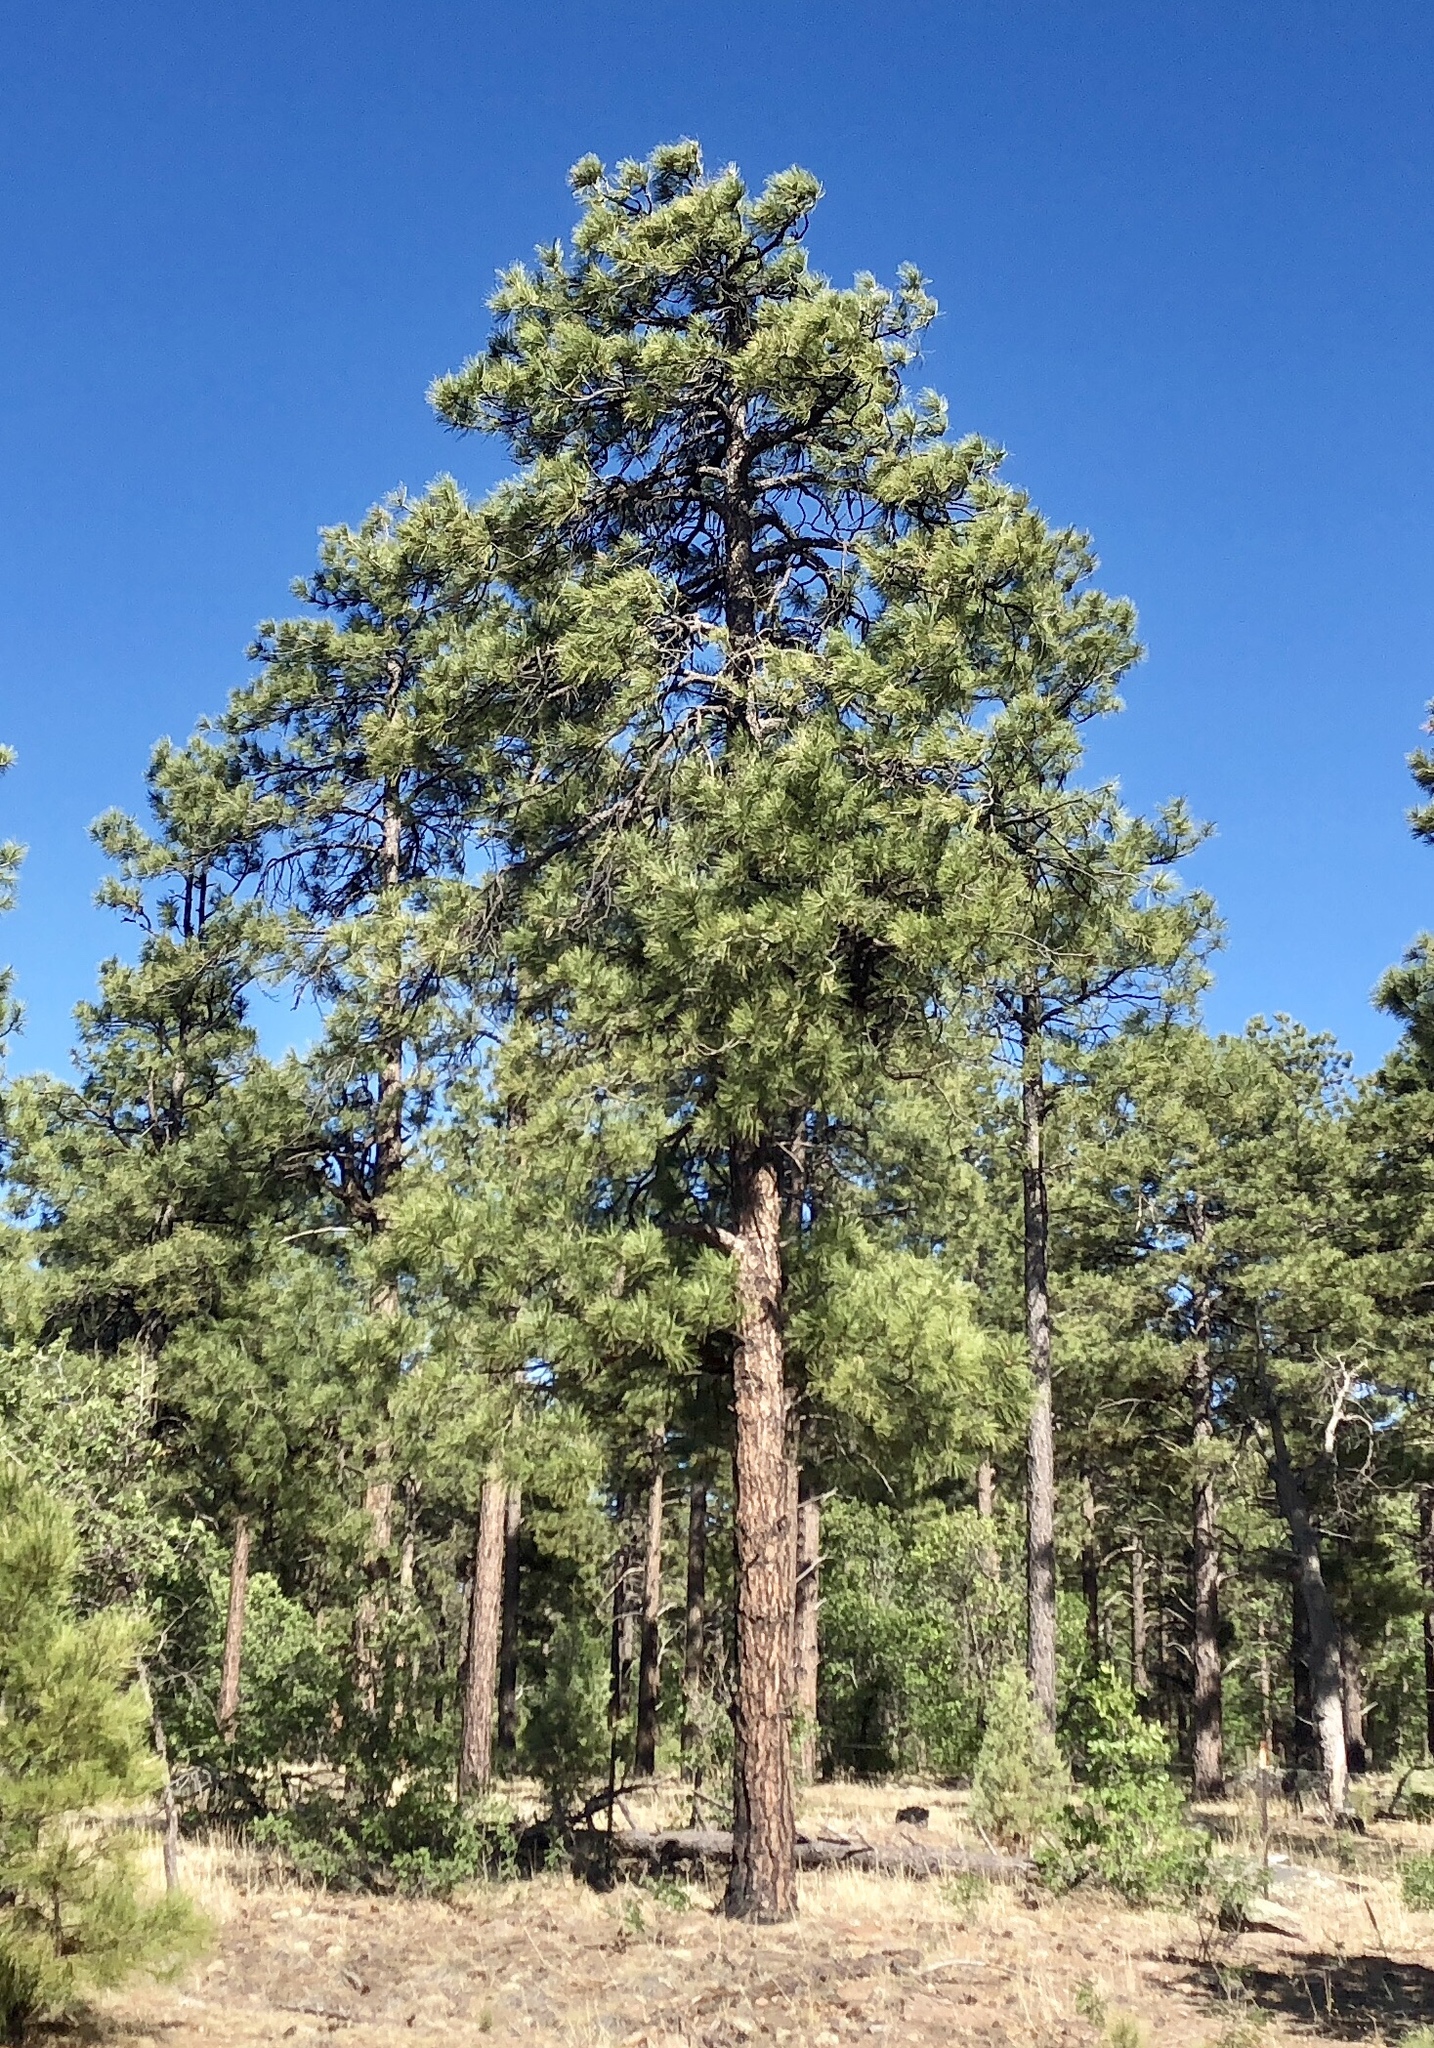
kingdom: Plantae
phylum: Tracheophyta
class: Pinopsida
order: Pinales
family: Pinaceae
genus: Pinus
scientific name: Pinus ponderosa
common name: Western yellow-pine
